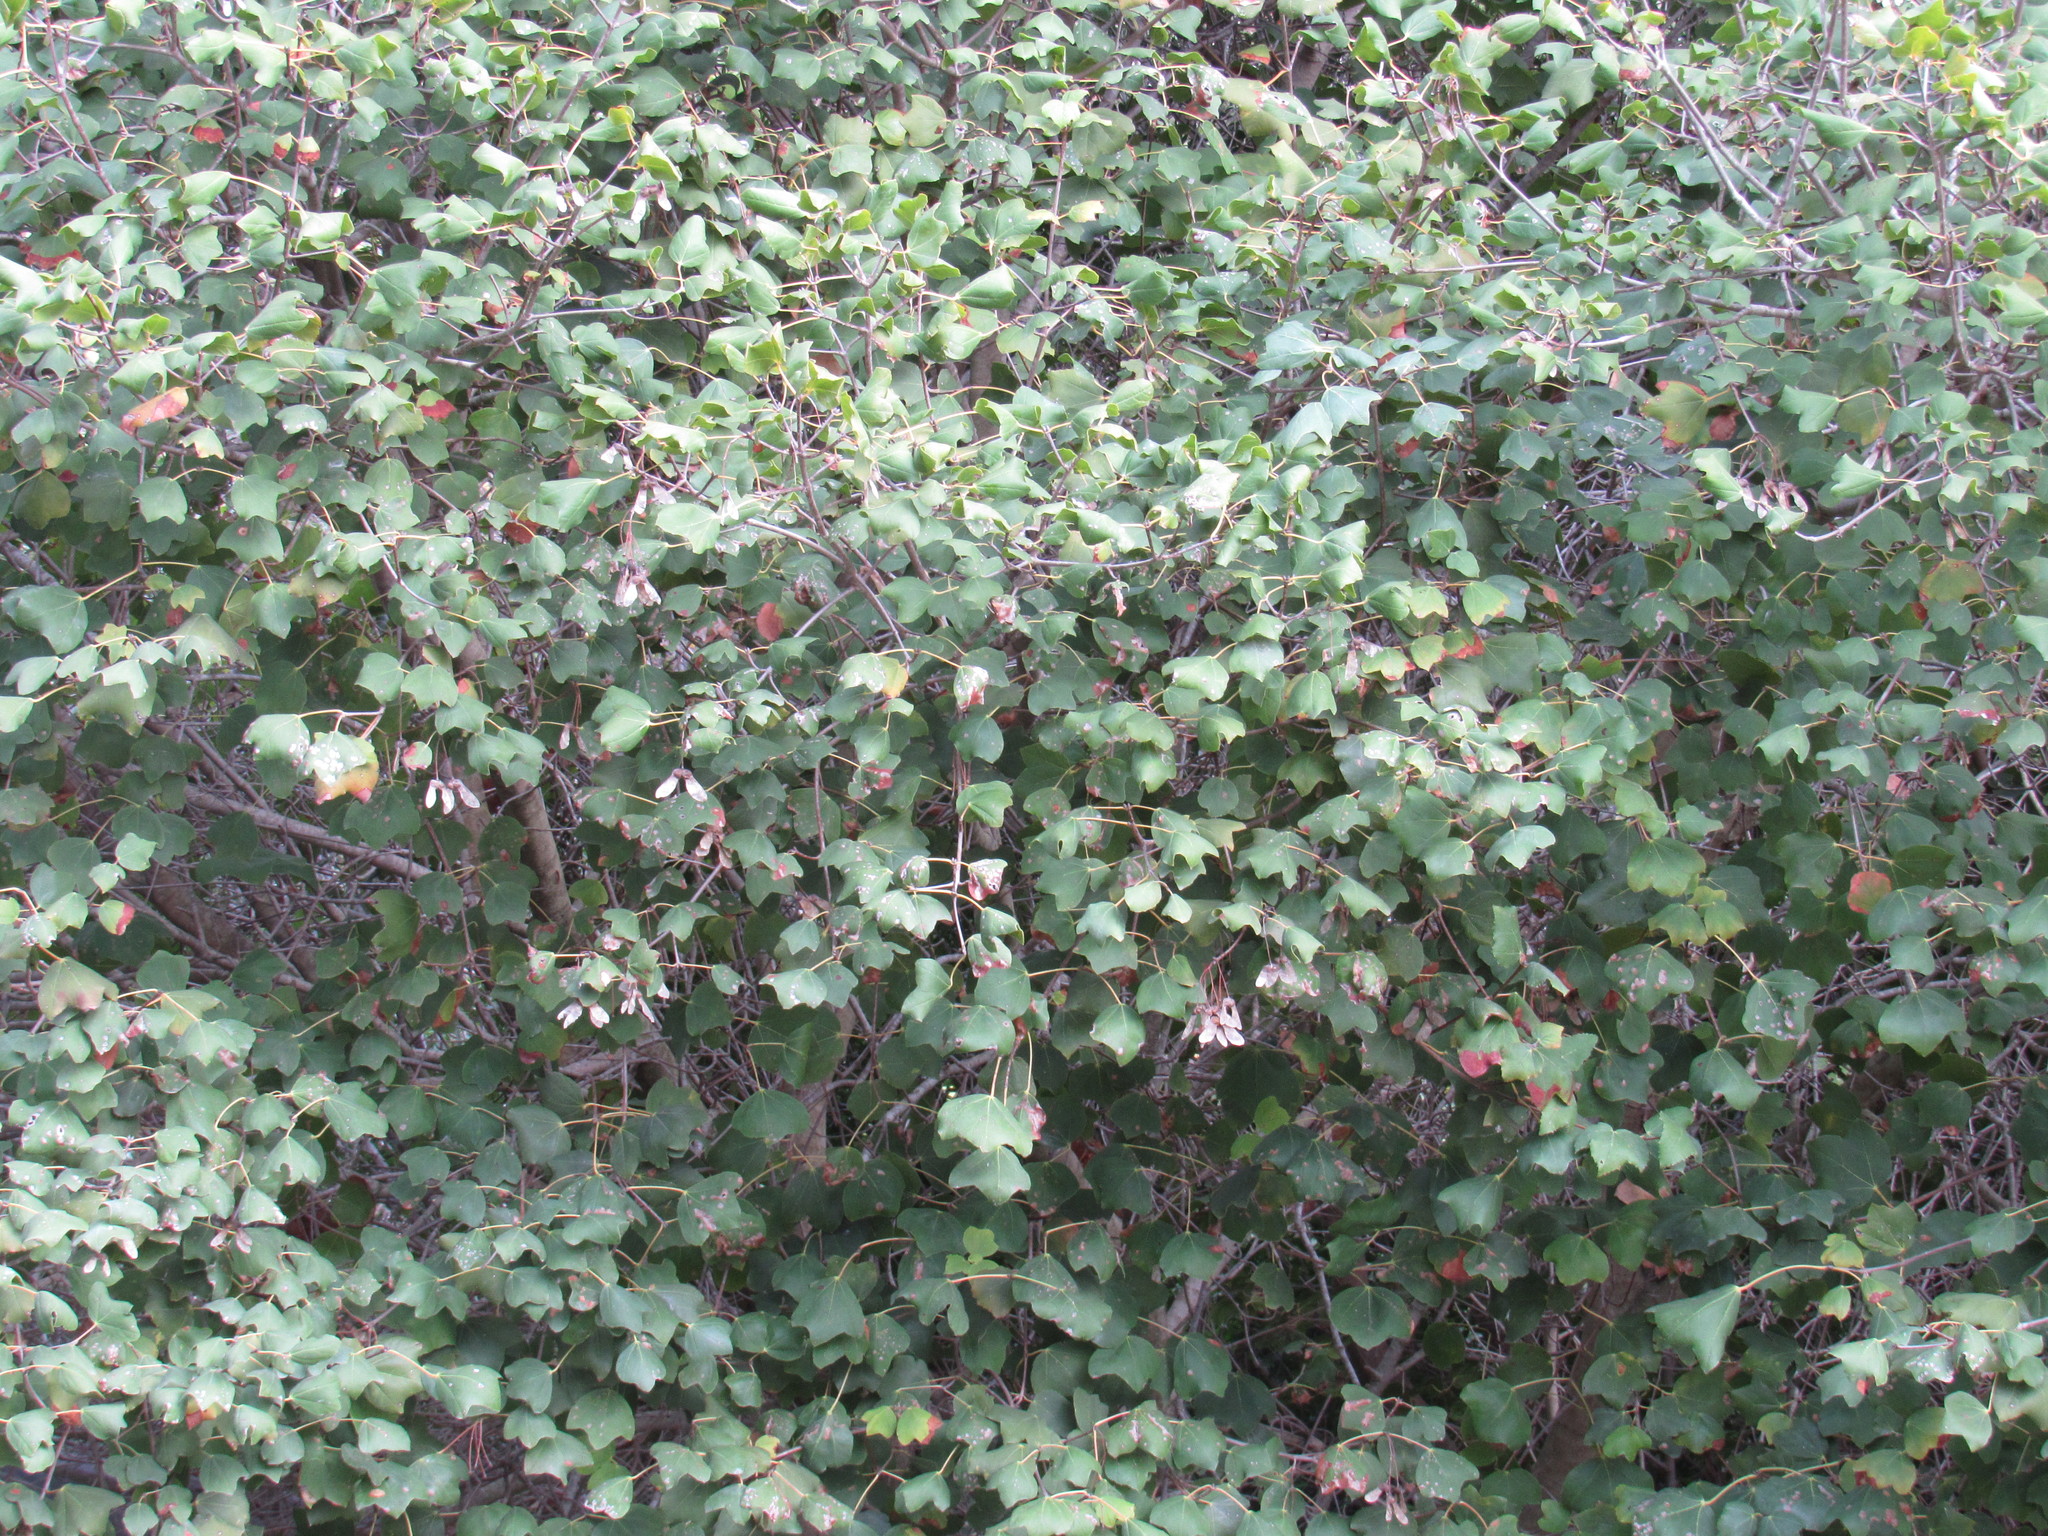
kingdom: Plantae
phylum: Tracheophyta
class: Magnoliopsida
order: Sapindales
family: Sapindaceae
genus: Acer
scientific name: Acer obtusifolium
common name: Cyprus maple
